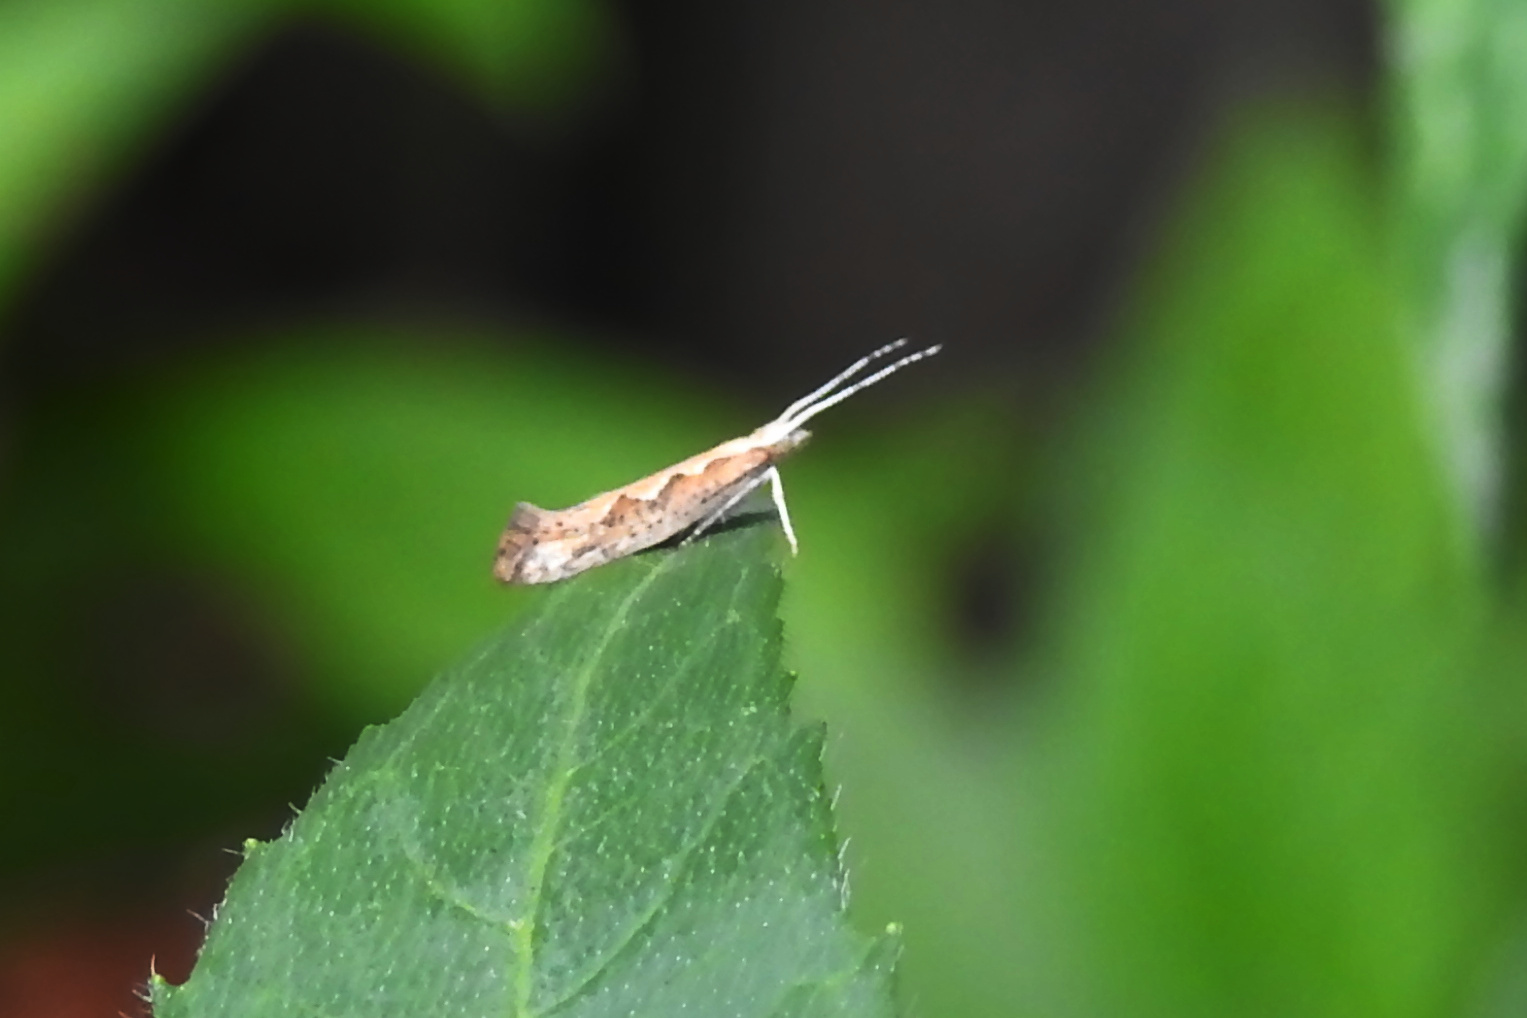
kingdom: Animalia
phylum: Arthropoda
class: Insecta
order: Lepidoptera
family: Plutellidae
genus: Plutella
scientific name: Plutella xylostella
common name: Diamond-back moth
